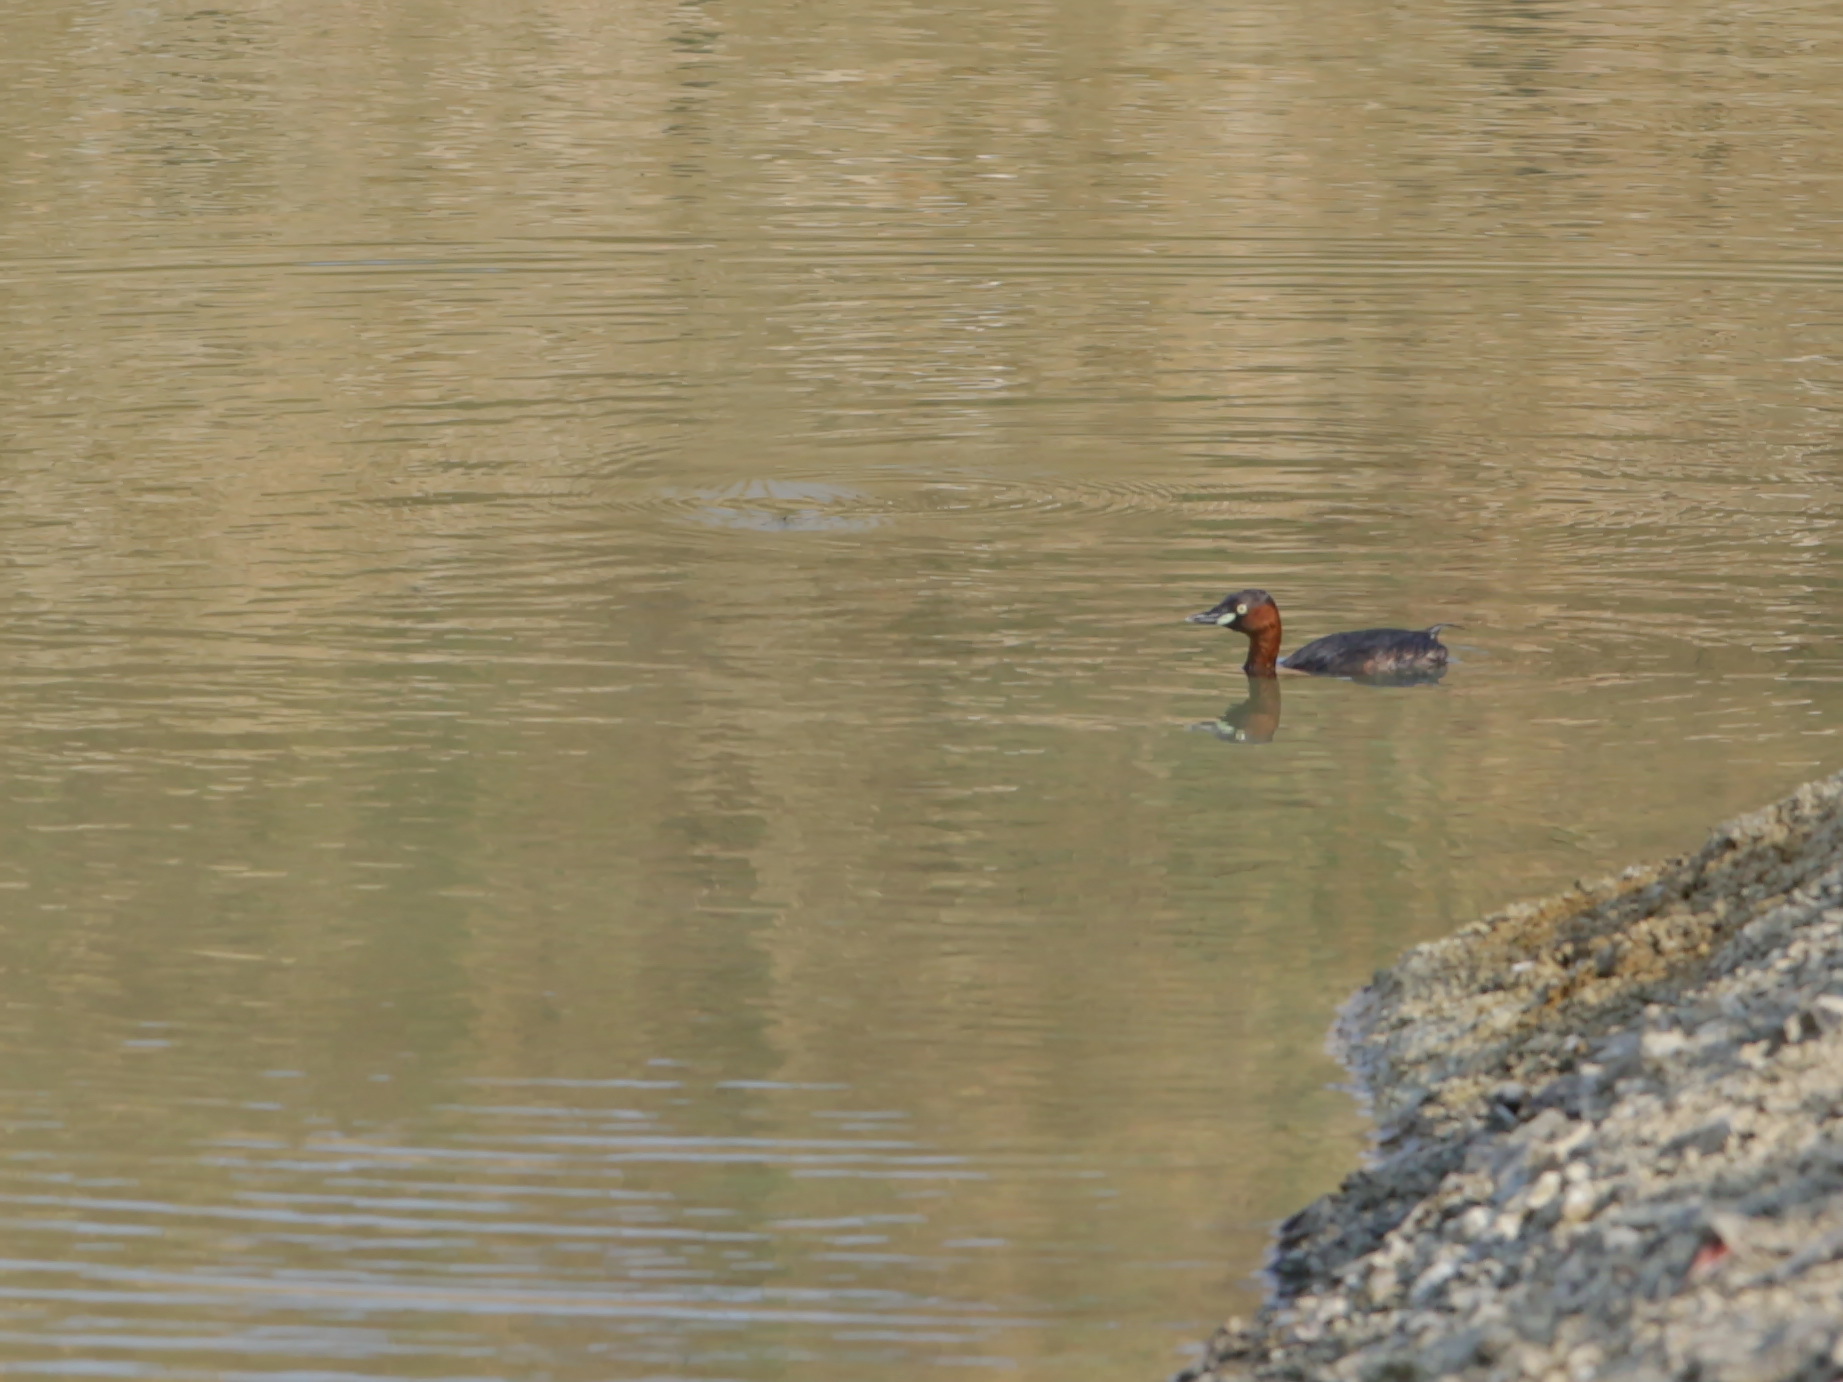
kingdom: Animalia
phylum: Chordata
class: Aves
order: Podicipediformes
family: Podicipedidae
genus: Tachybaptus
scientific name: Tachybaptus ruficollis
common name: Little grebe
